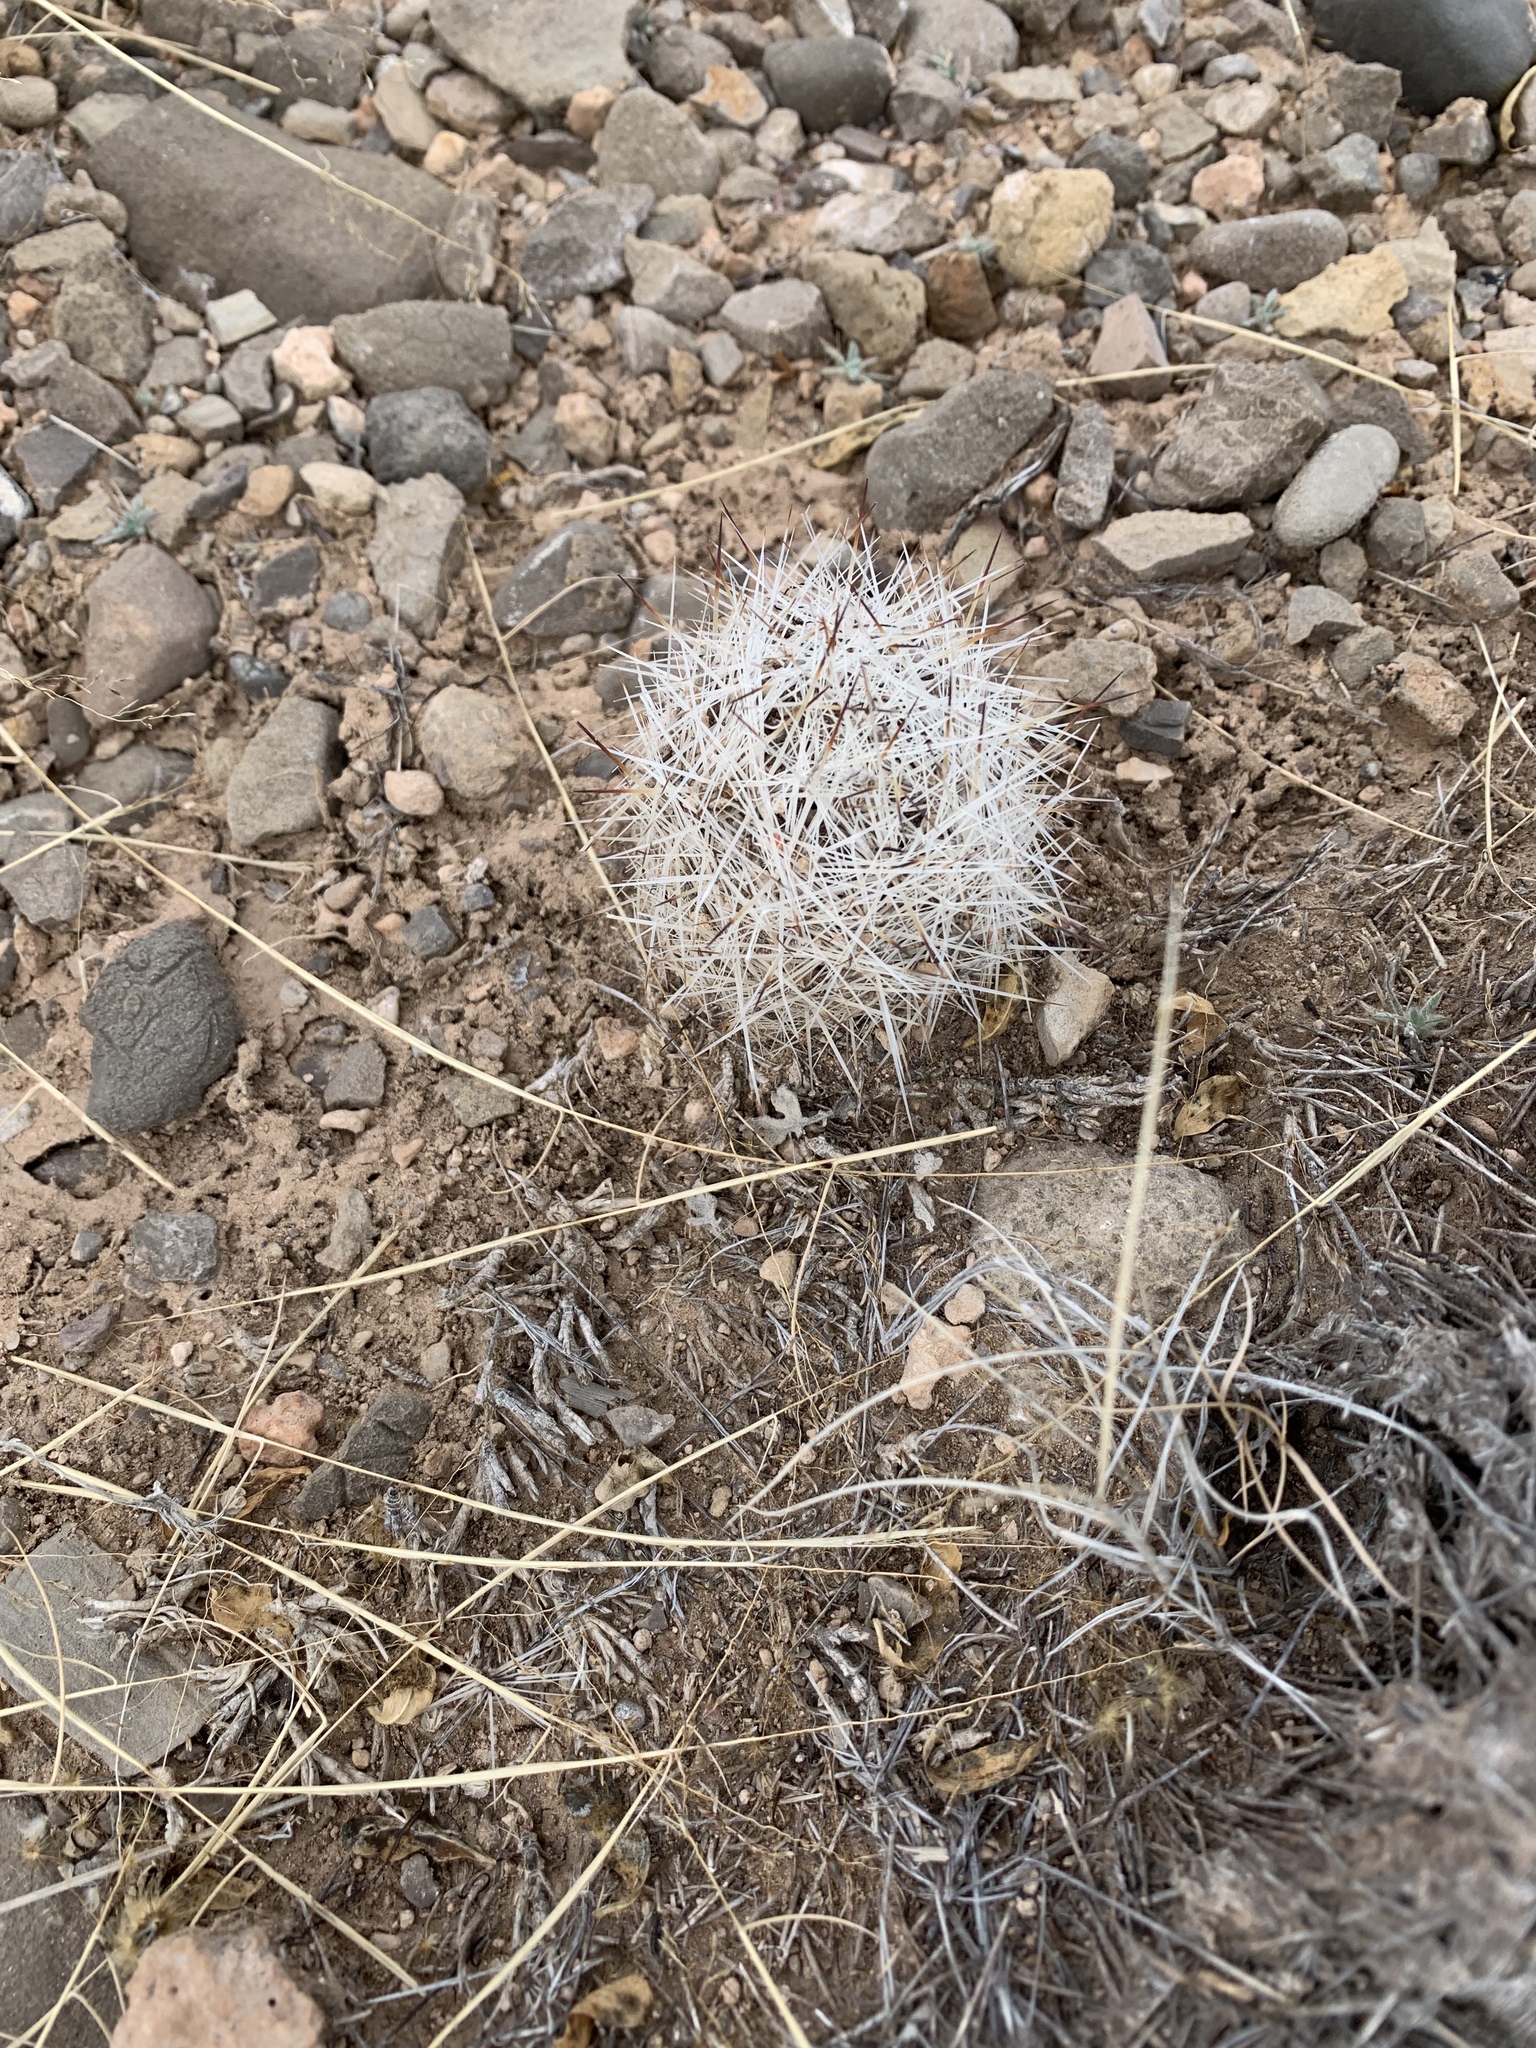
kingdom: Plantae
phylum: Tracheophyta
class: Magnoliopsida
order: Caryophyllales
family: Cactaceae
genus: Pelecyphora
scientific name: Pelecyphora vivipara
